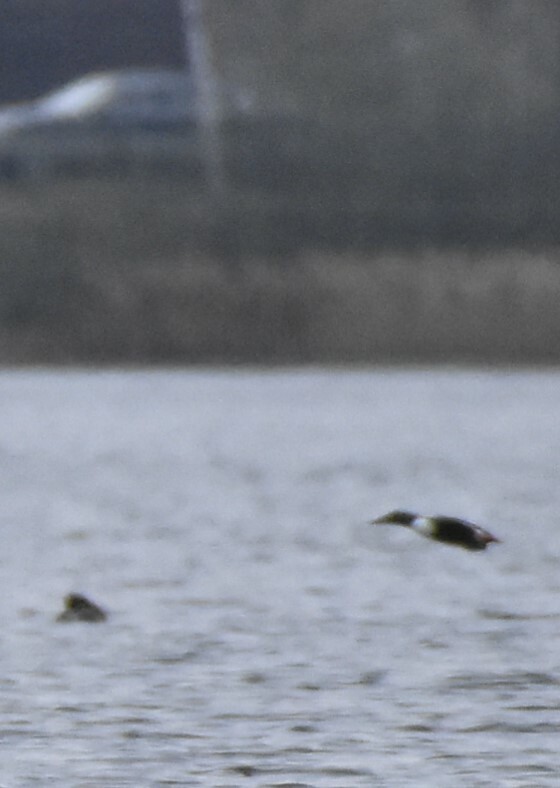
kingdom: Animalia
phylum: Chordata
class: Aves
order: Anseriformes
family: Anatidae
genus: Spatula
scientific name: Spatula clypeata
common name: Northern shoveler
